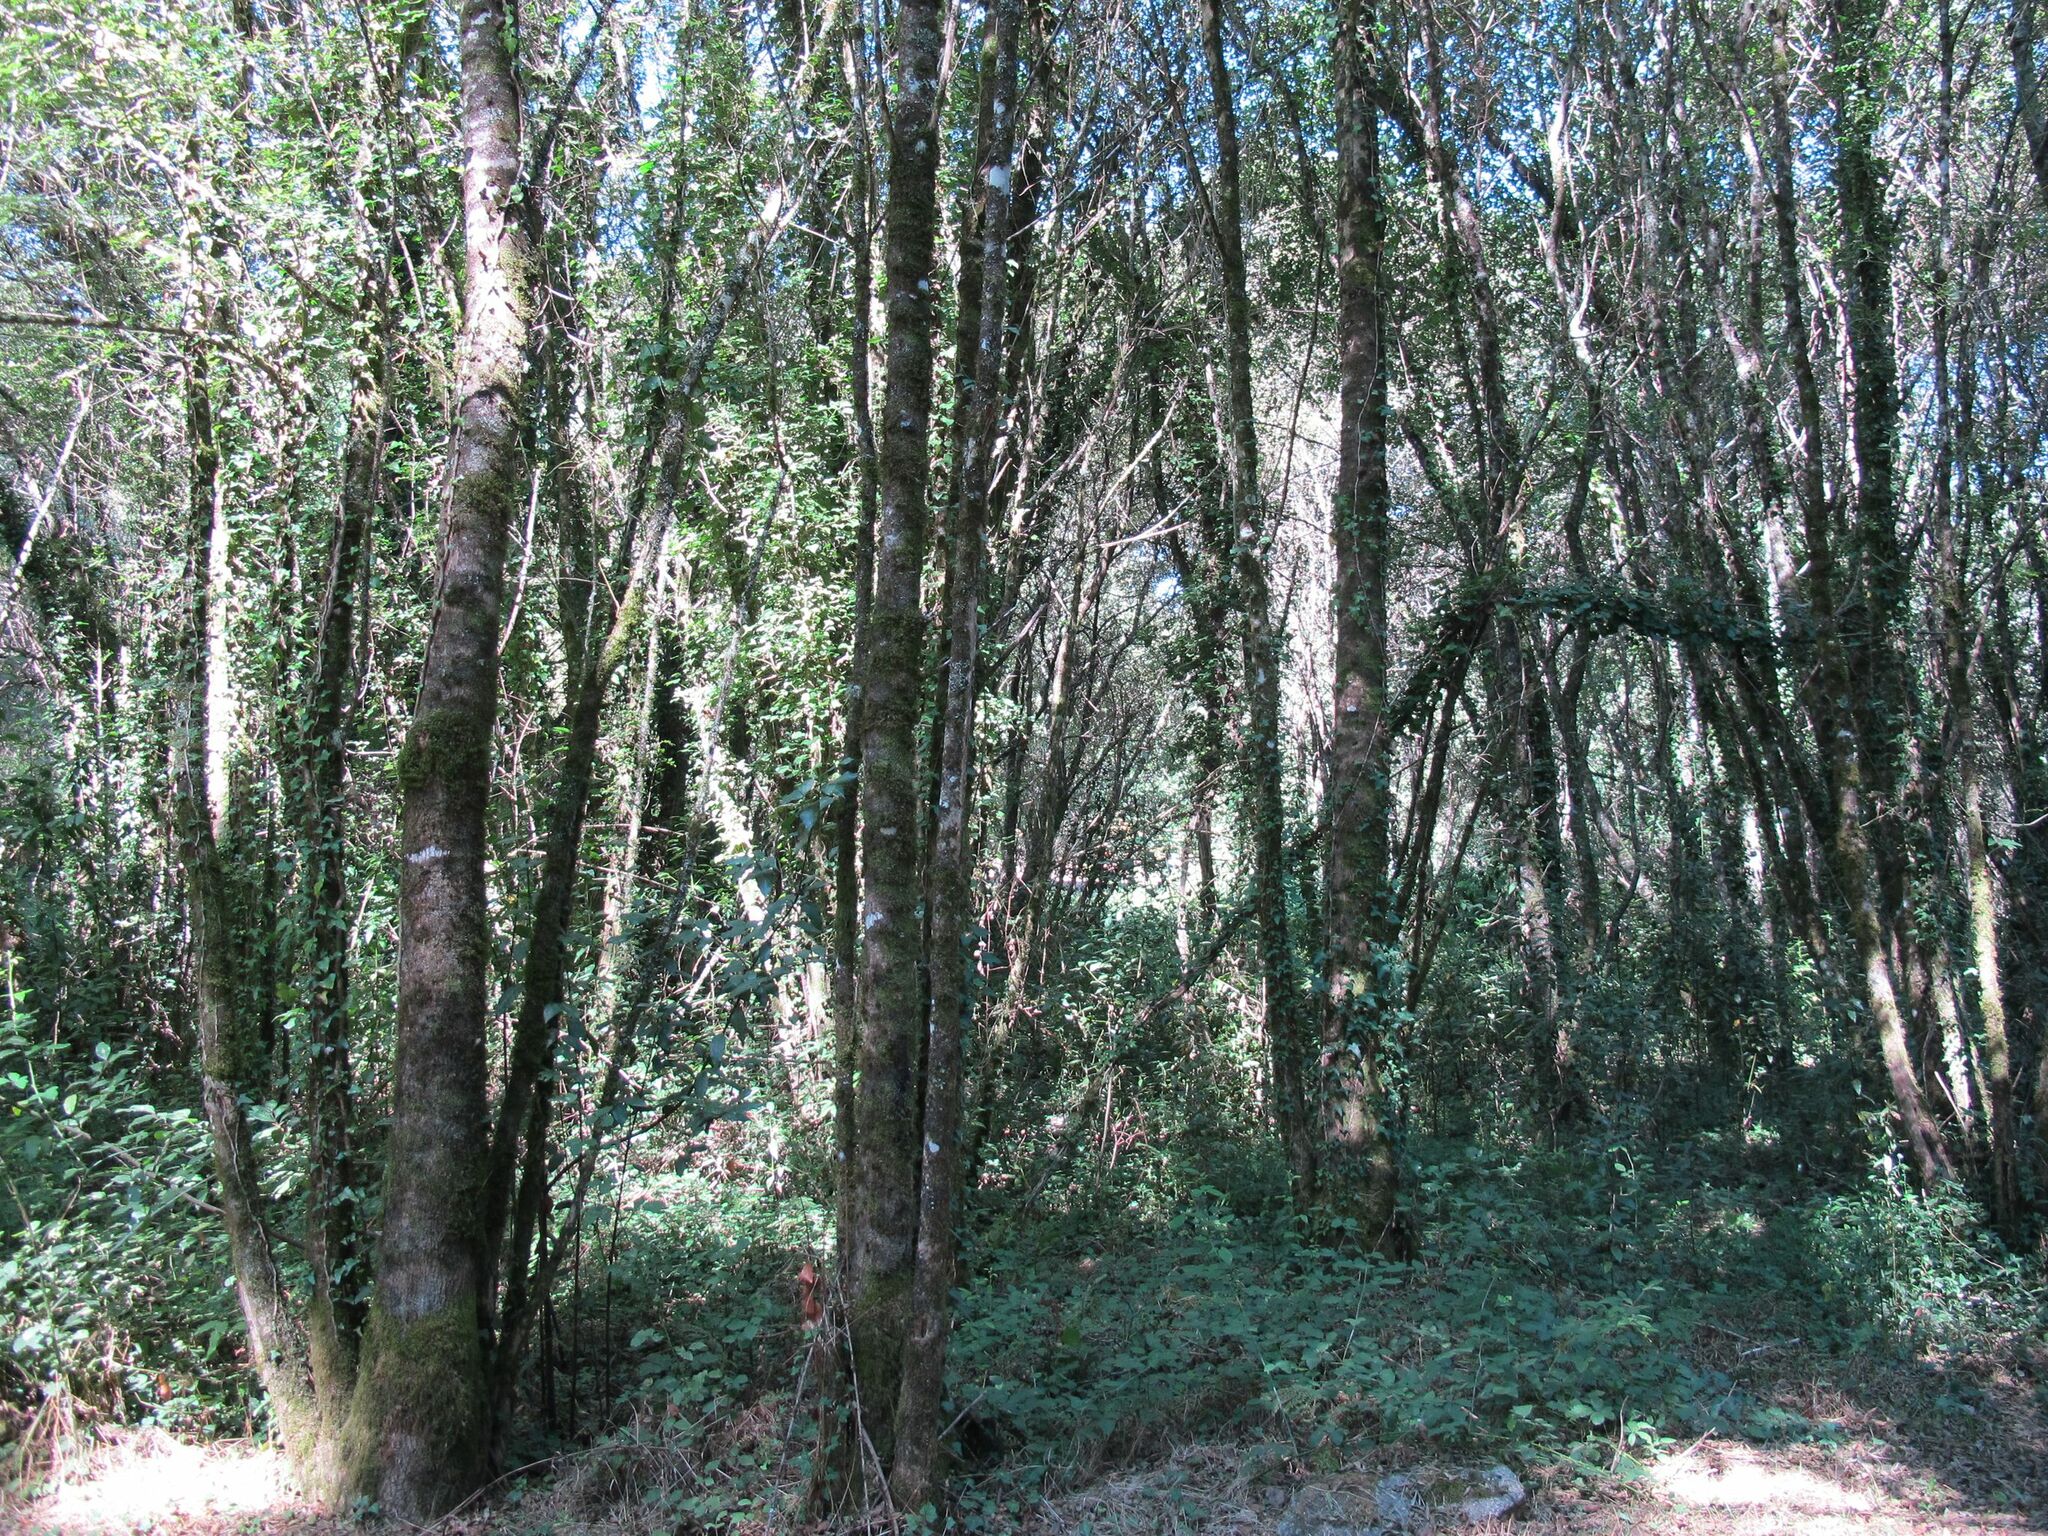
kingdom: Plantae
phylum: Bryophyta
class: Bryopsida
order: Hypnales
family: Cryphaeaceae
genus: Cryphaea
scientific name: Cryphaea heteromalla
